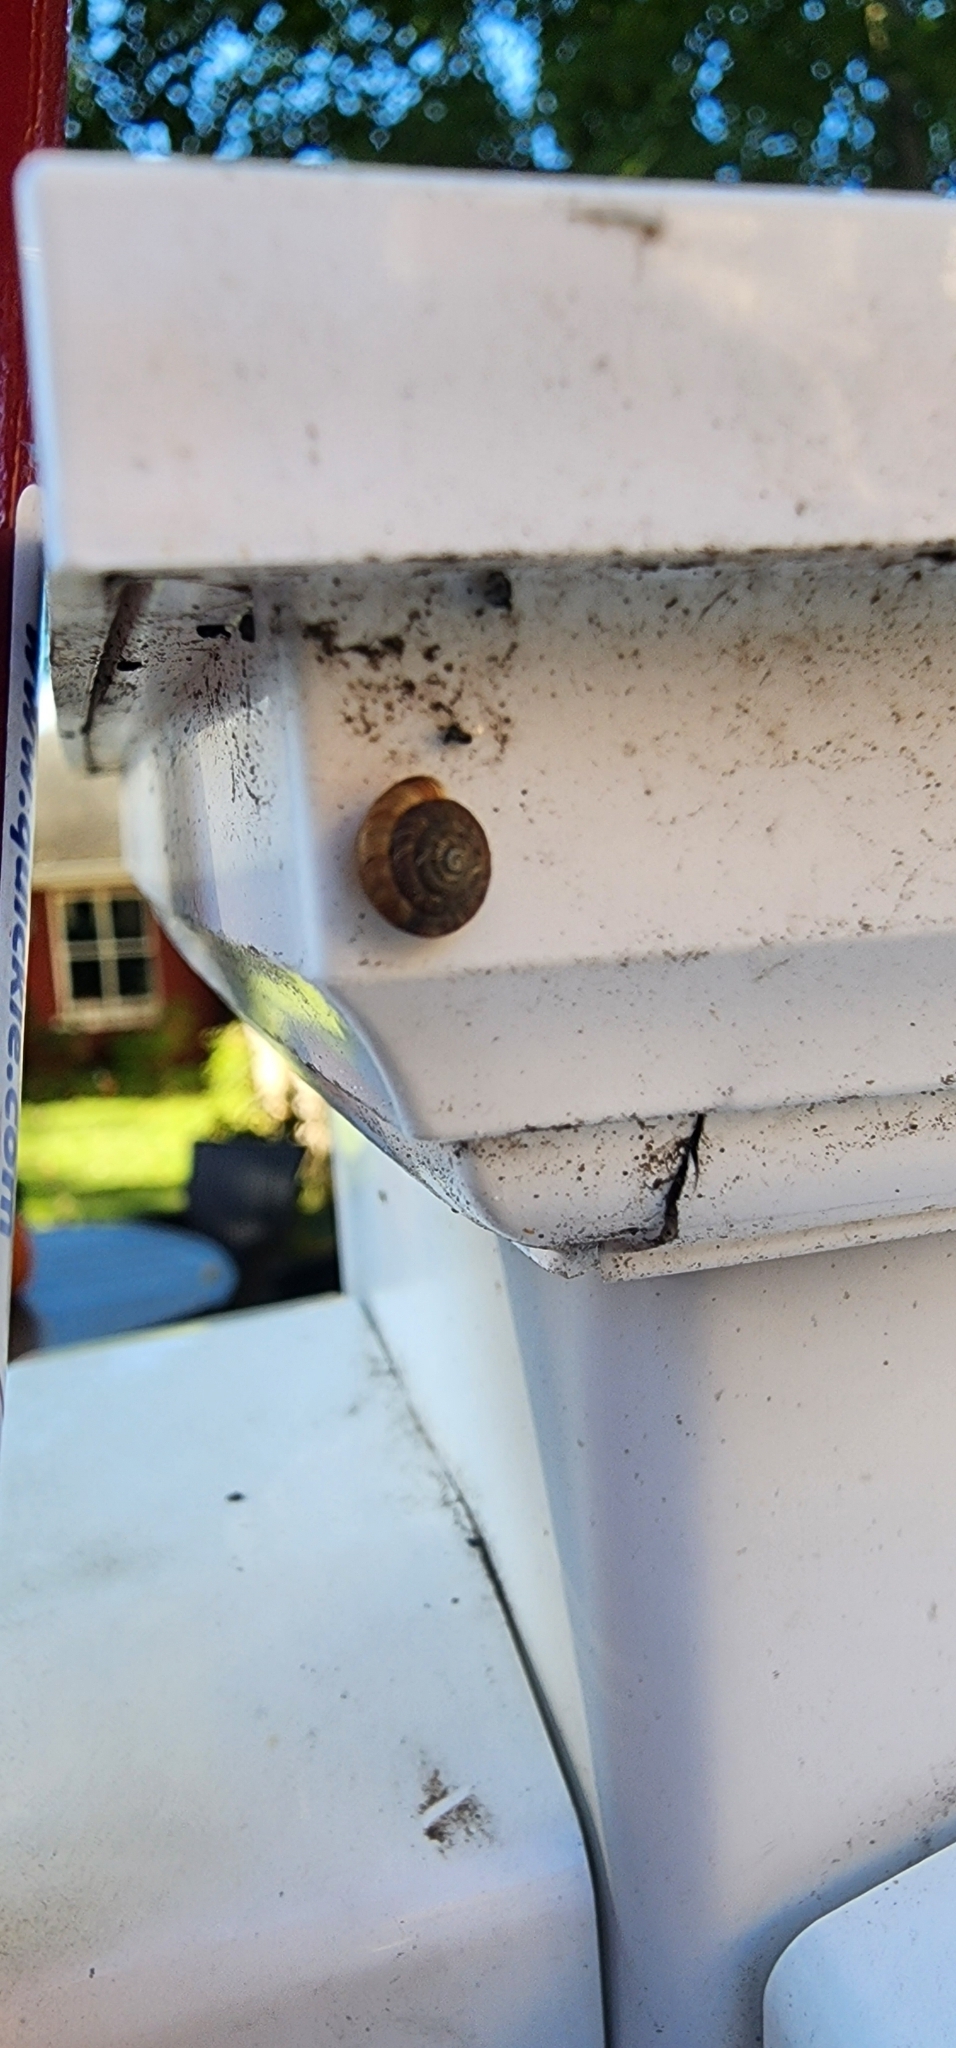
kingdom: Animalia
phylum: Mollusca
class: Gastropoda
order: Stylommatophora
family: Discidae
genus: Discus
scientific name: Discus rotundatus
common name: Rounded snail
